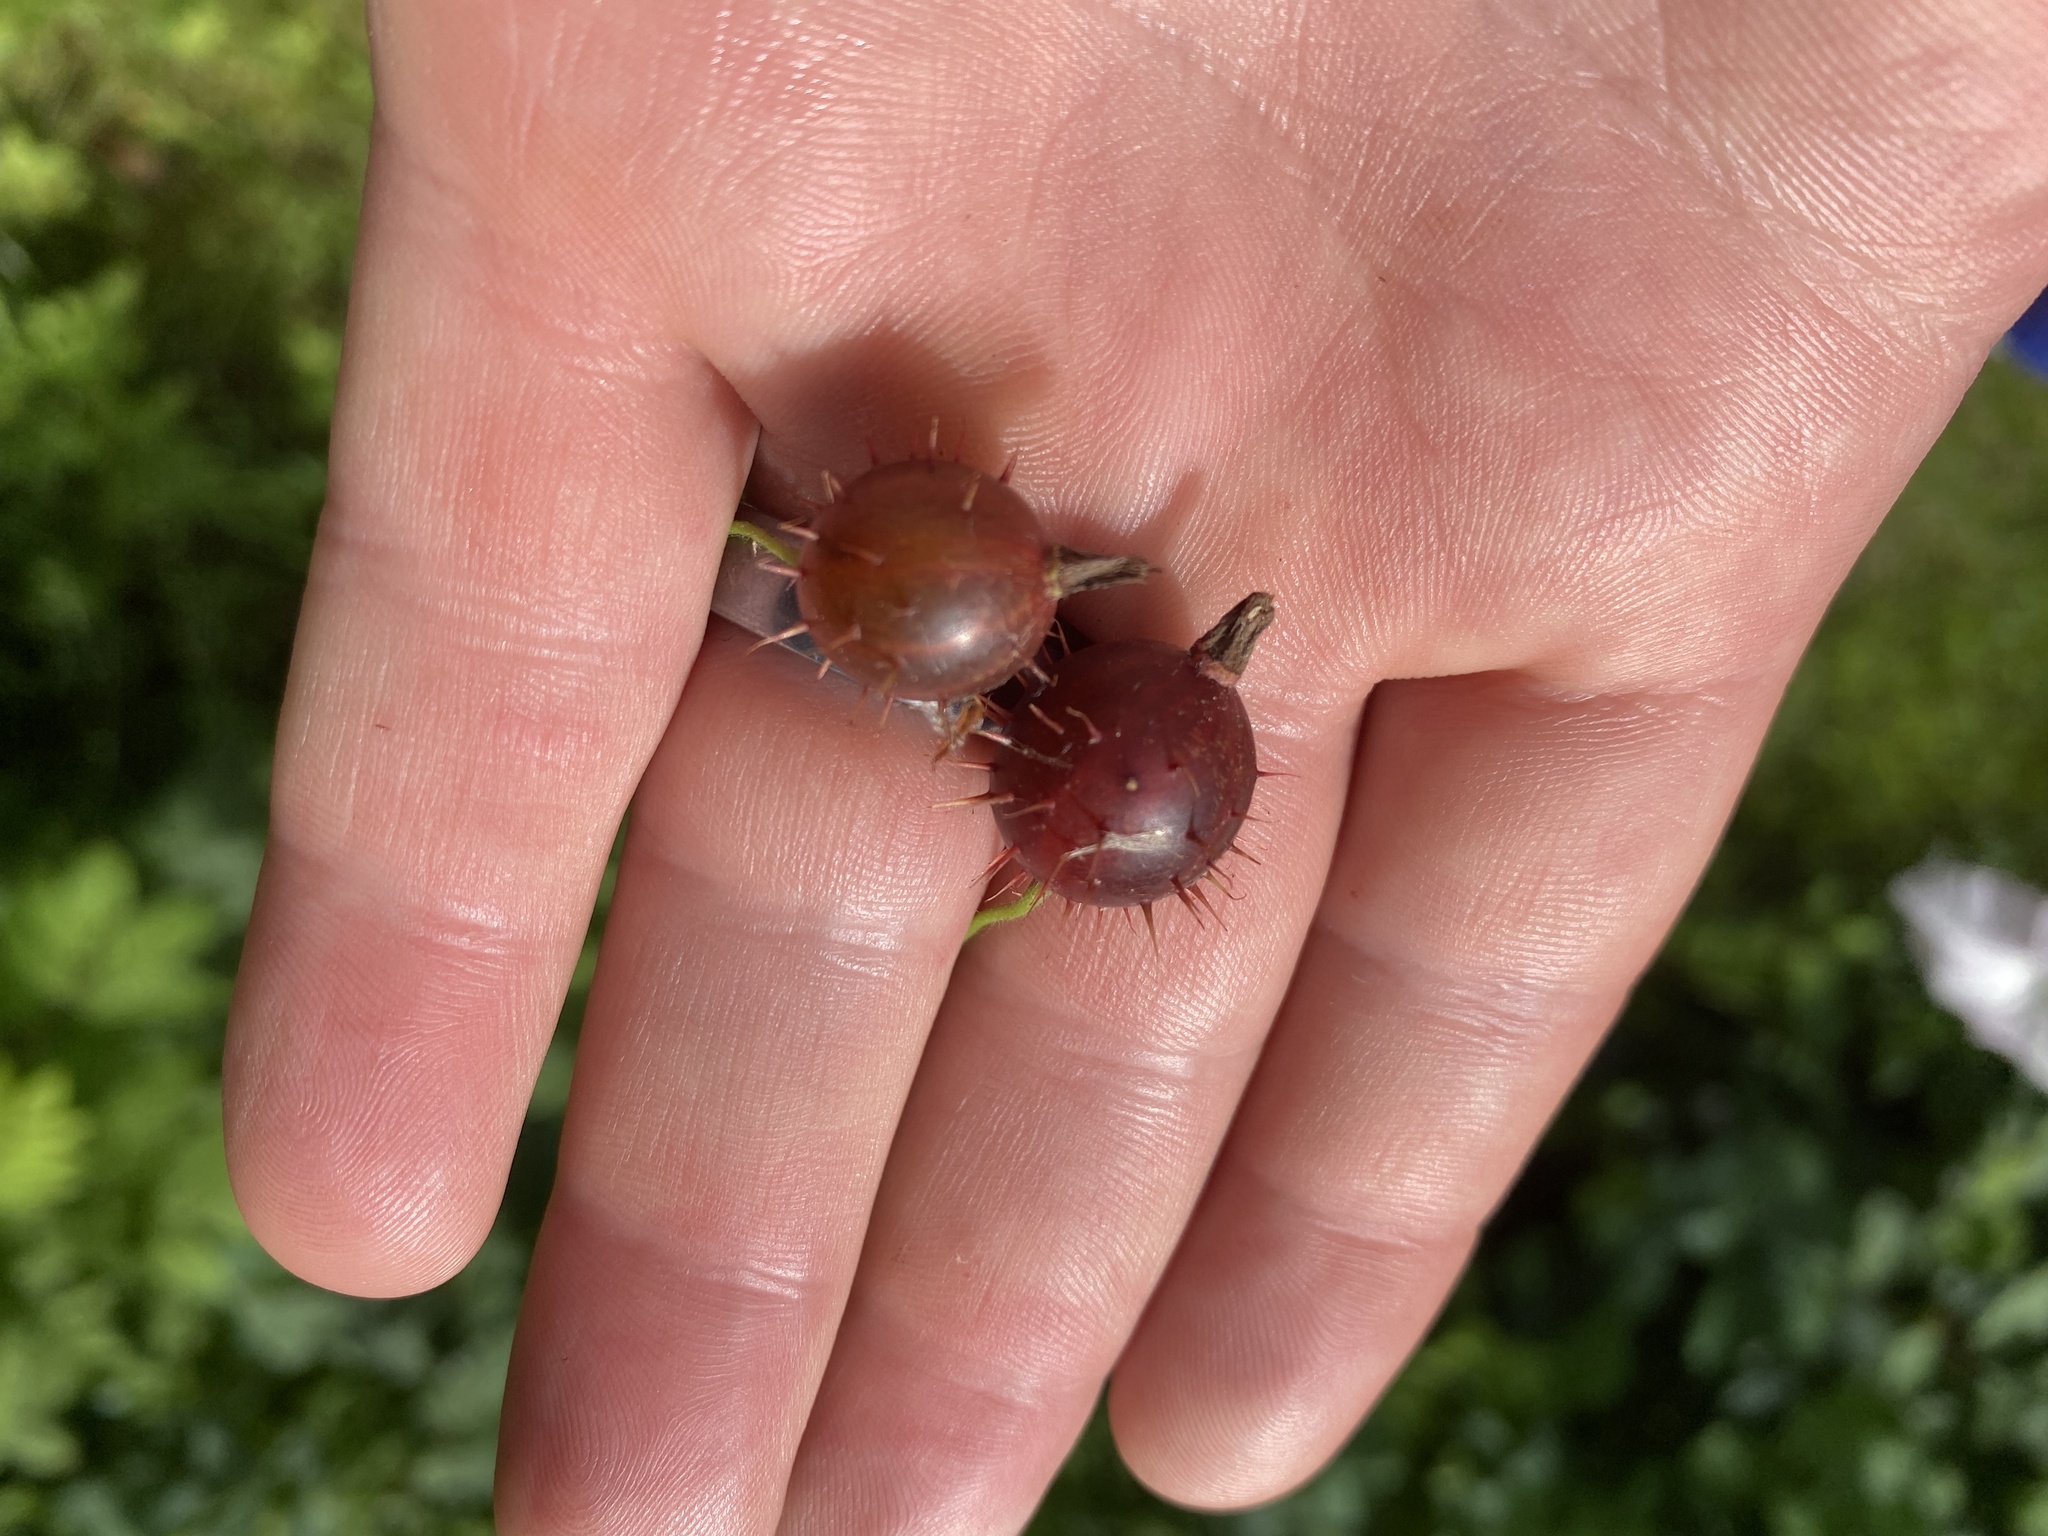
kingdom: Plantae
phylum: Tracheophyta
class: Magnoliopsida
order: Saxifragales
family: Grossulariaceae
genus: Ribes
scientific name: Ribes cynosbati
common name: American gooseberry
